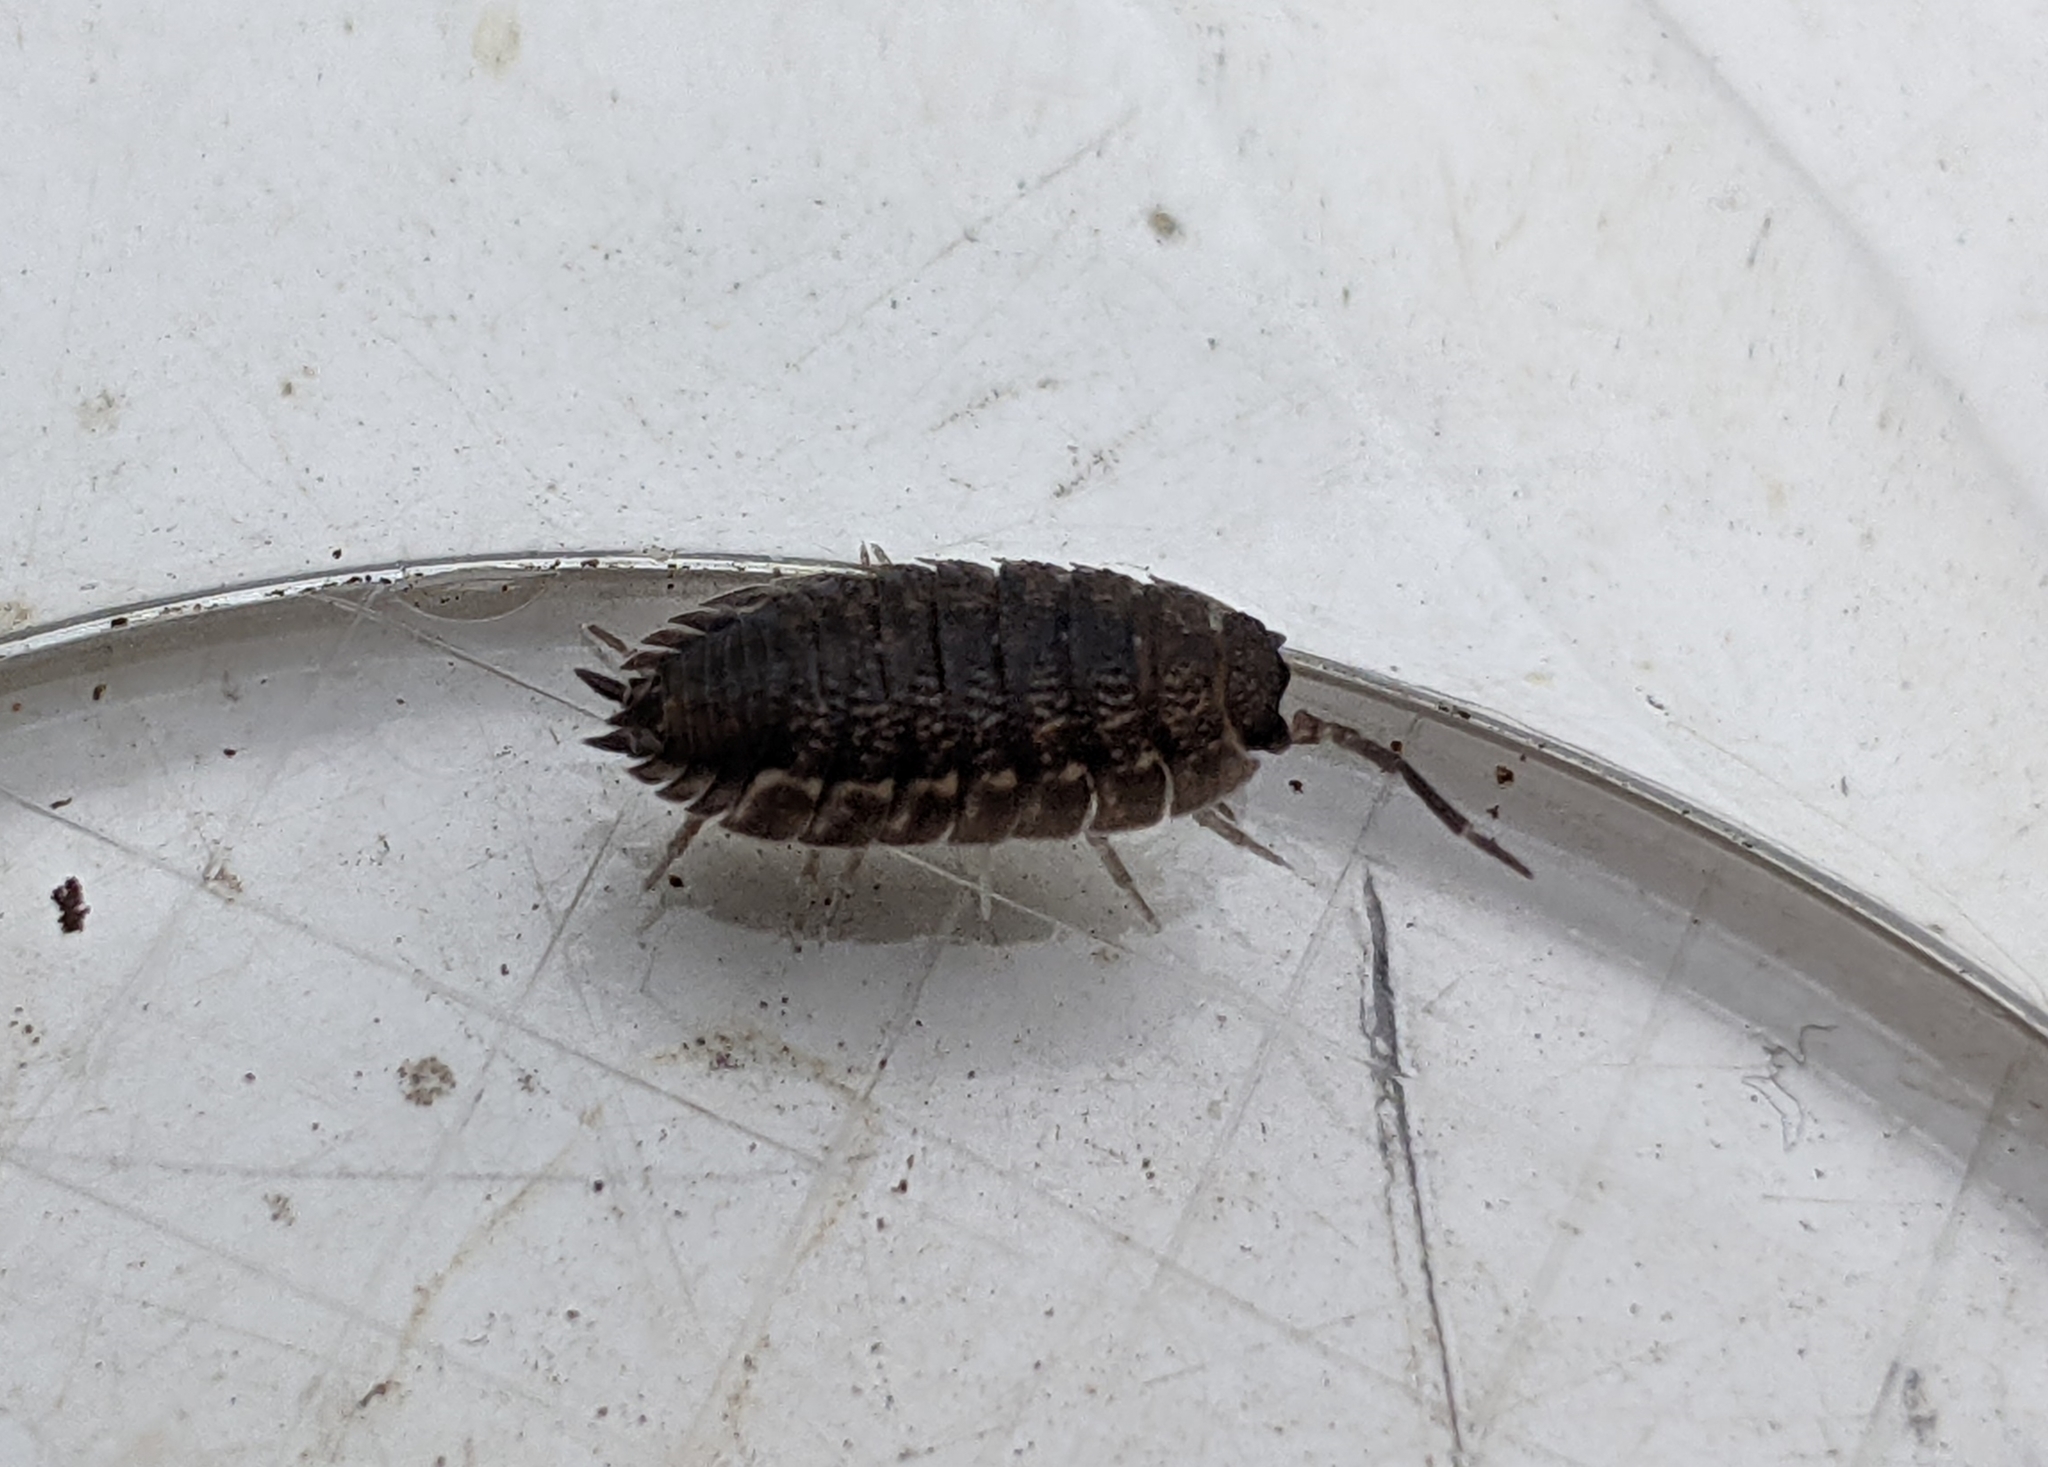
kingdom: Animalia
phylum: Arthropoda
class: Malacostraca
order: Isopoda
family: Porcellionidae
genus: Porcellio
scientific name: Porcellio scaber
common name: Common rough woodlouse
